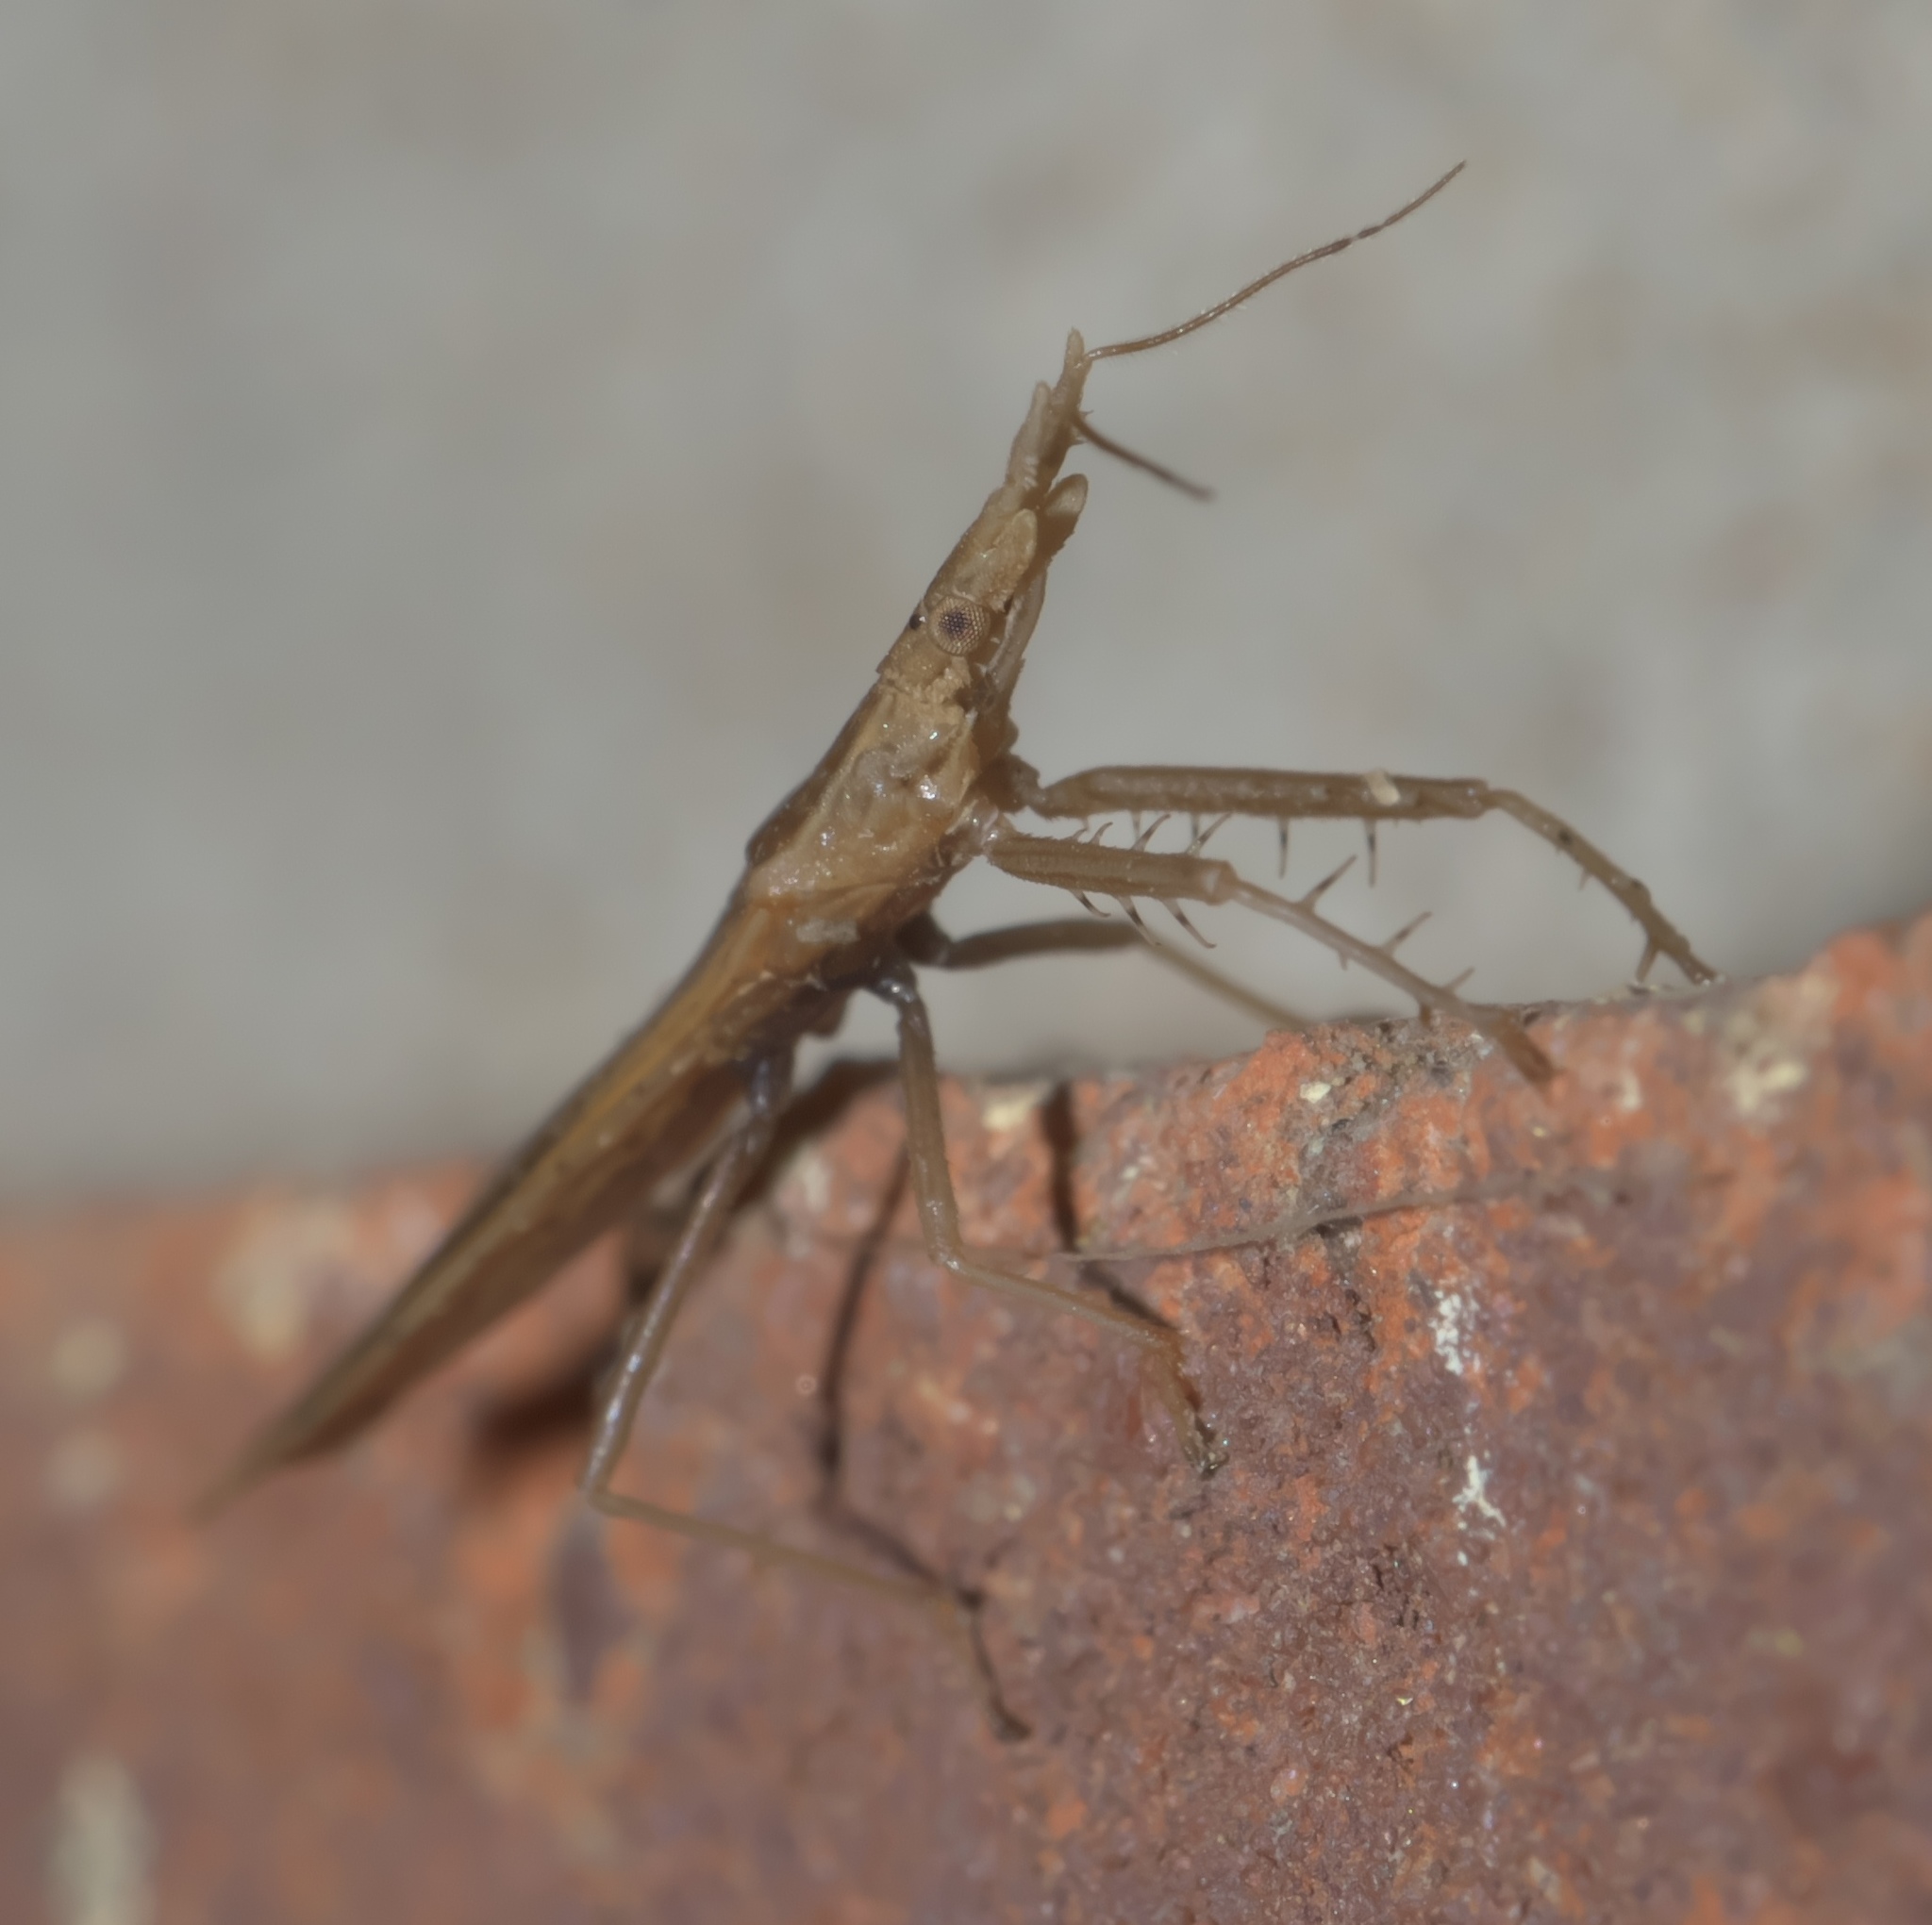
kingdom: Animalia
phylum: Arthropoda
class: Insecta
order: Hemiptera
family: Reduviidae
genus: Pnirontis
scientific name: Pnirontis modesta
